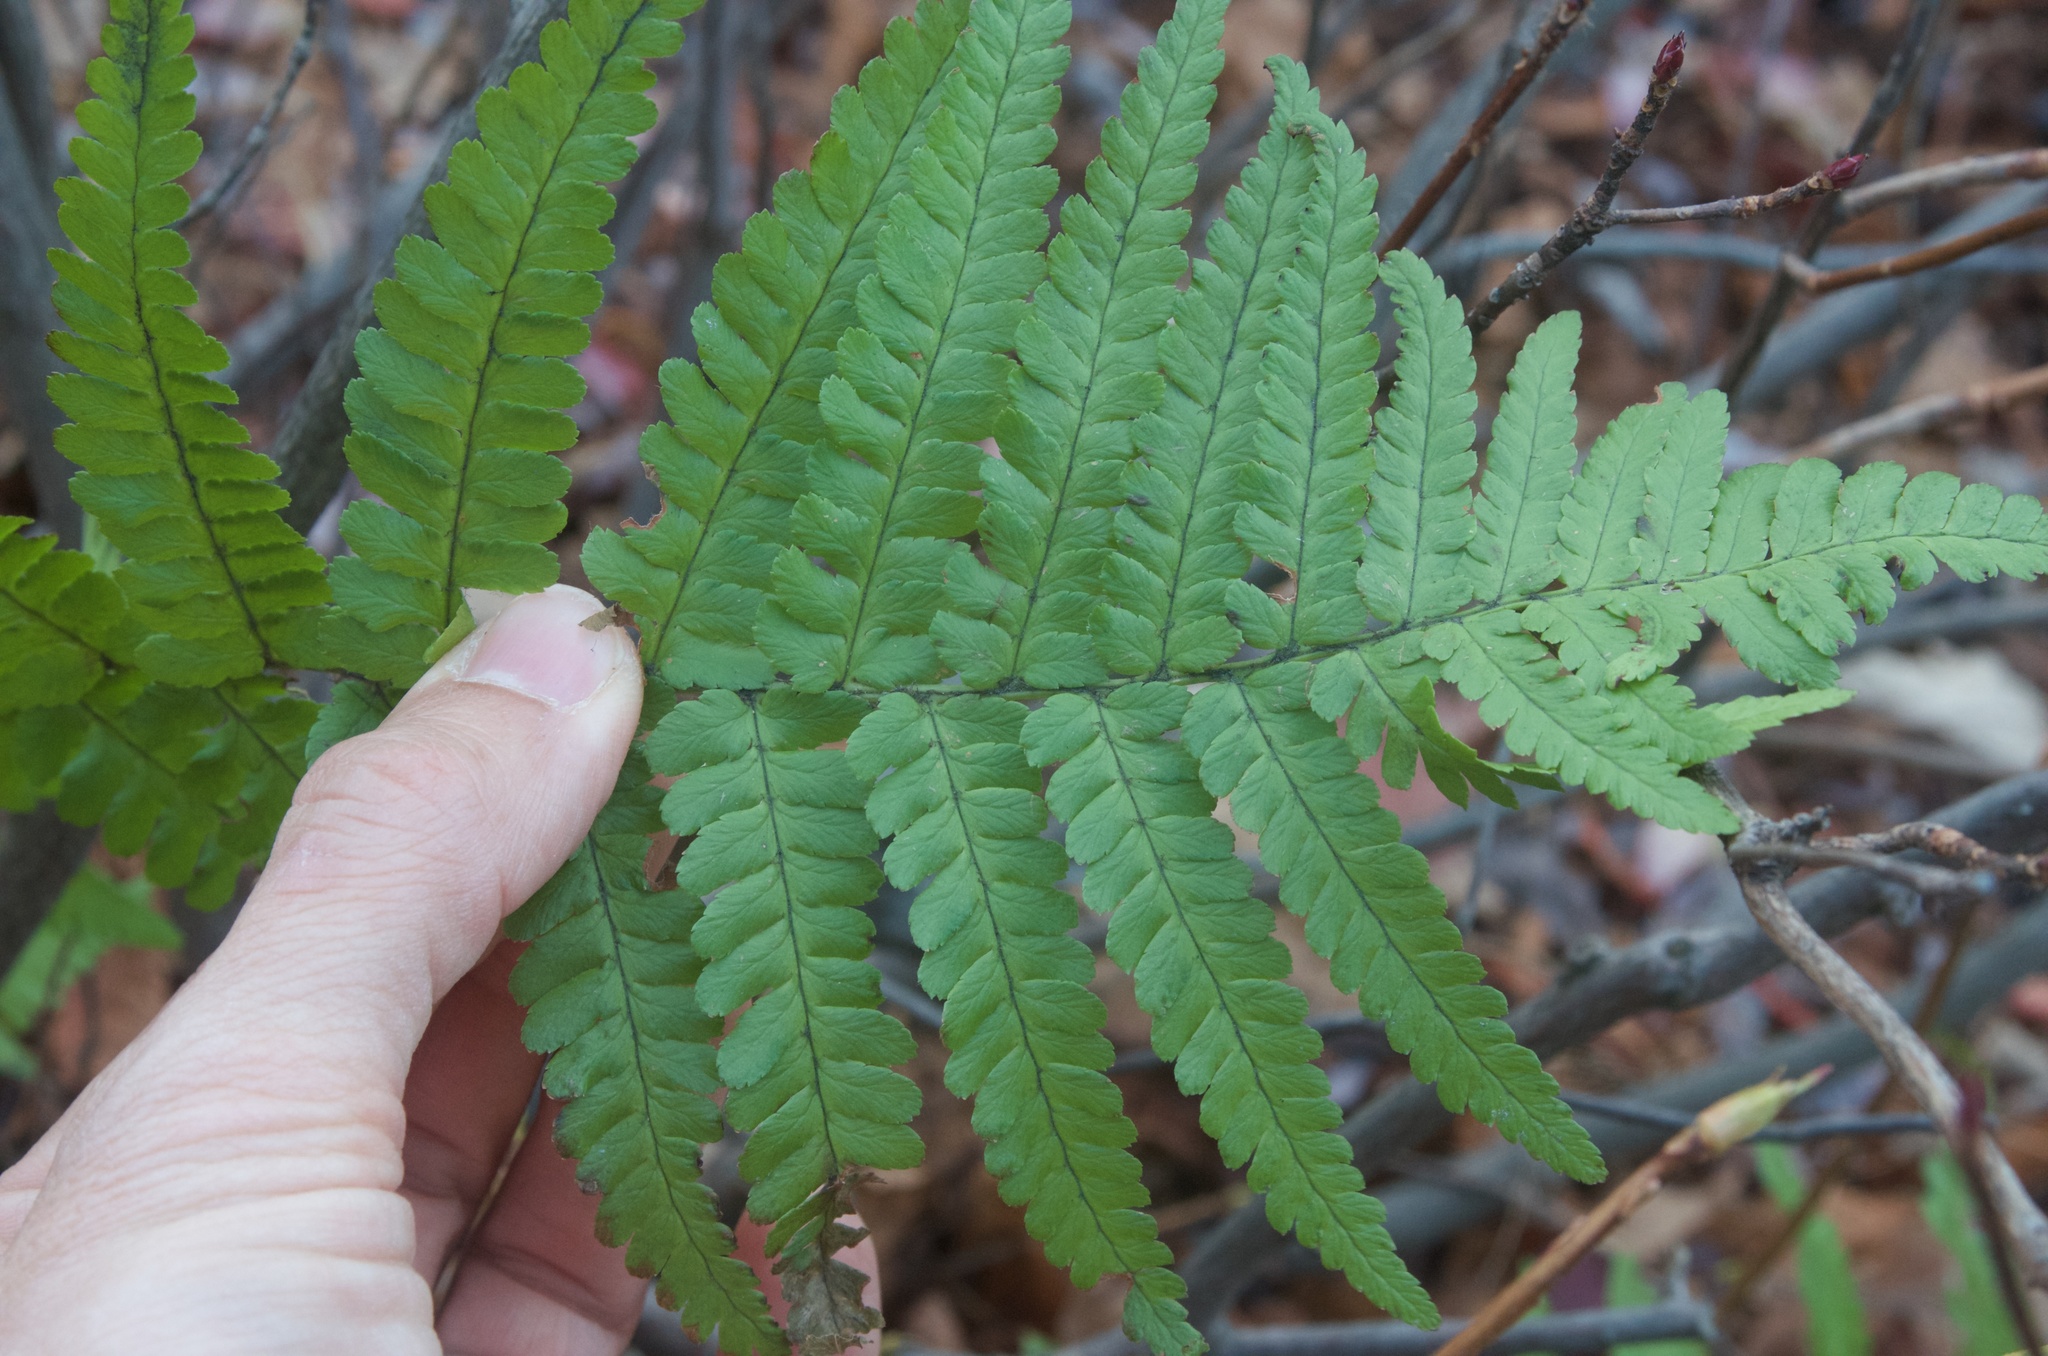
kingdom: Plantae
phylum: Tracheophyta
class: Polypodiopsida
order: Polypodiales
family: Dryopteridaceae
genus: Dryopteris
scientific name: Dryopteris filix-mas
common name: Male fern
